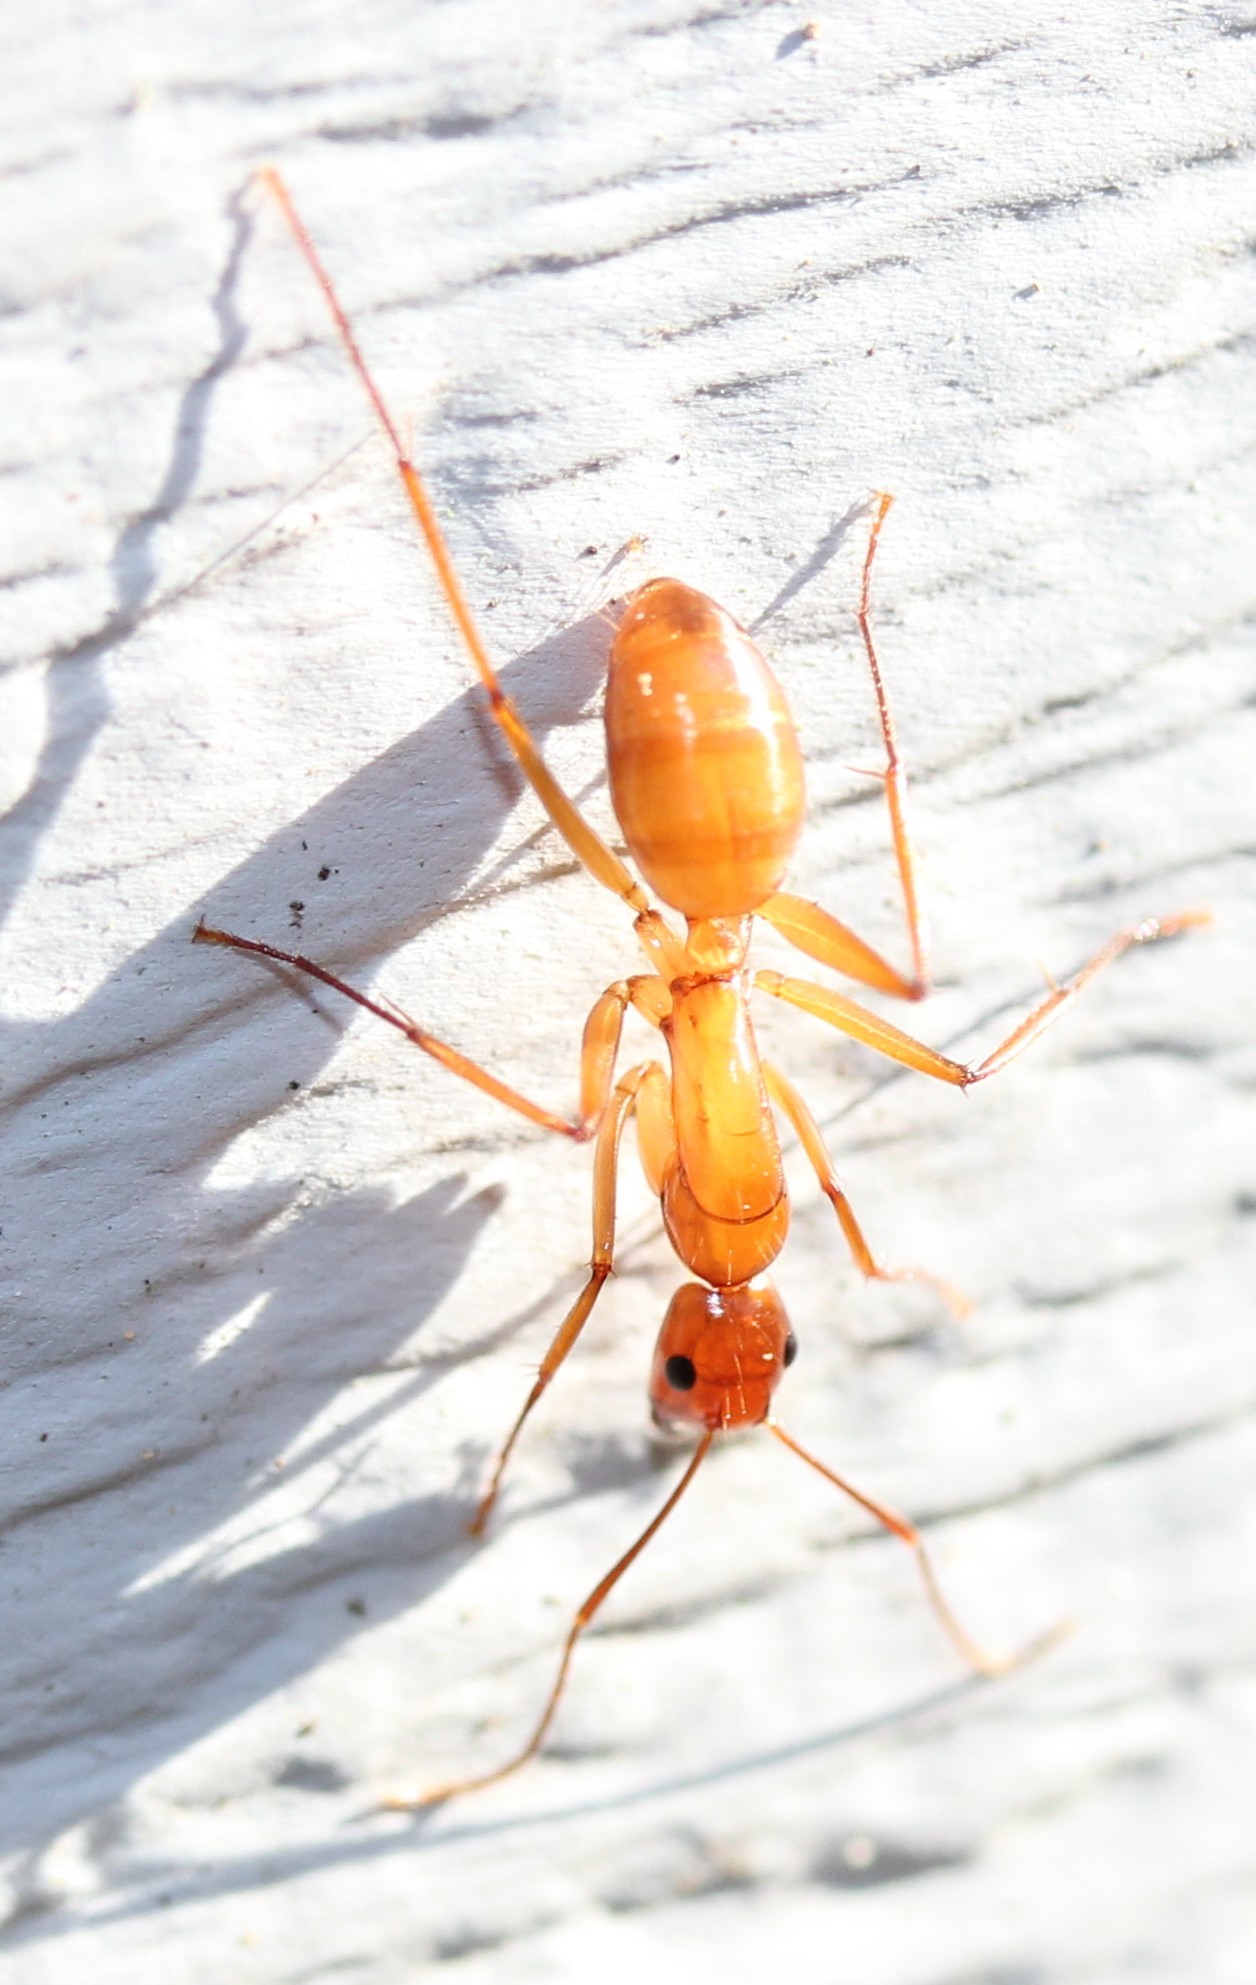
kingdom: Animalia
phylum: Arthropoda
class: Insecta
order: Hymenoptera
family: Formicidae
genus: Camponotus
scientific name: Camponotus castaneus
